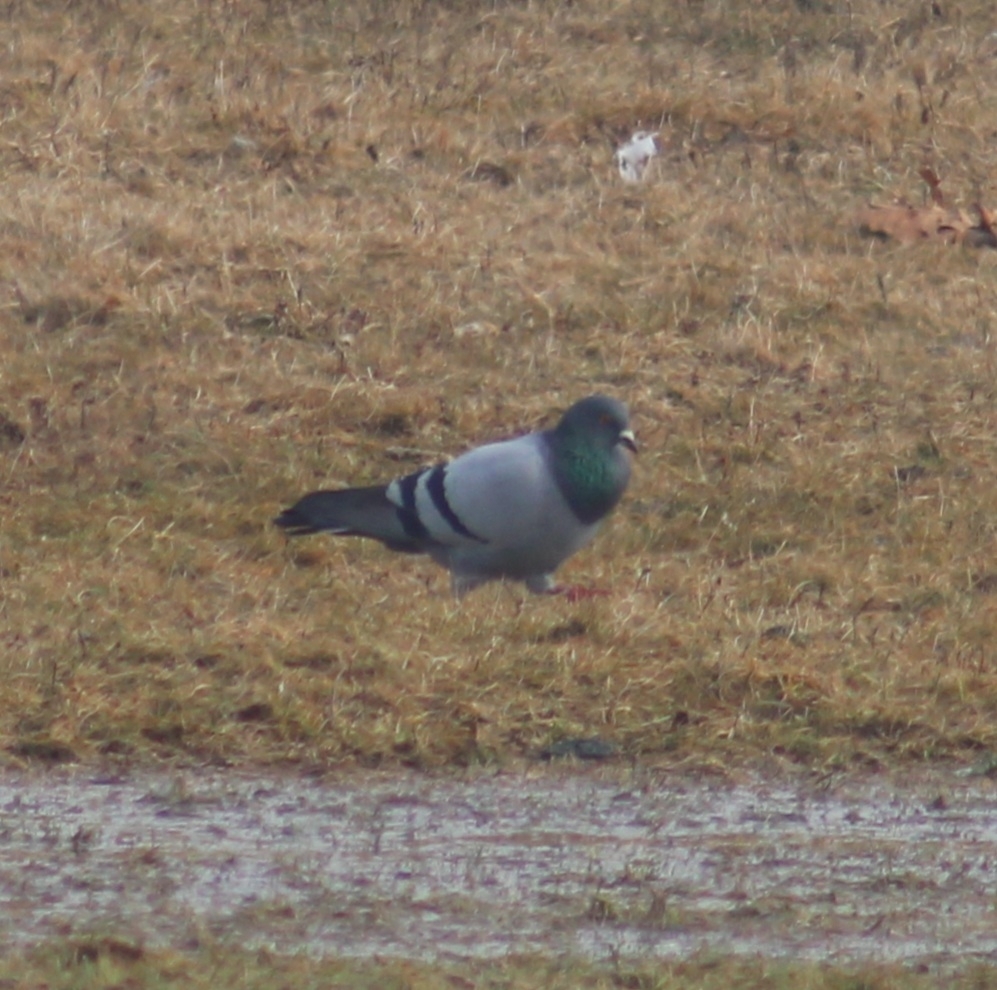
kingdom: Animalia
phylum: Chordata
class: Aves
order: Columbiformes
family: Columbidae
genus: Columba
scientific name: Columba livia
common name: Rock pigeon
